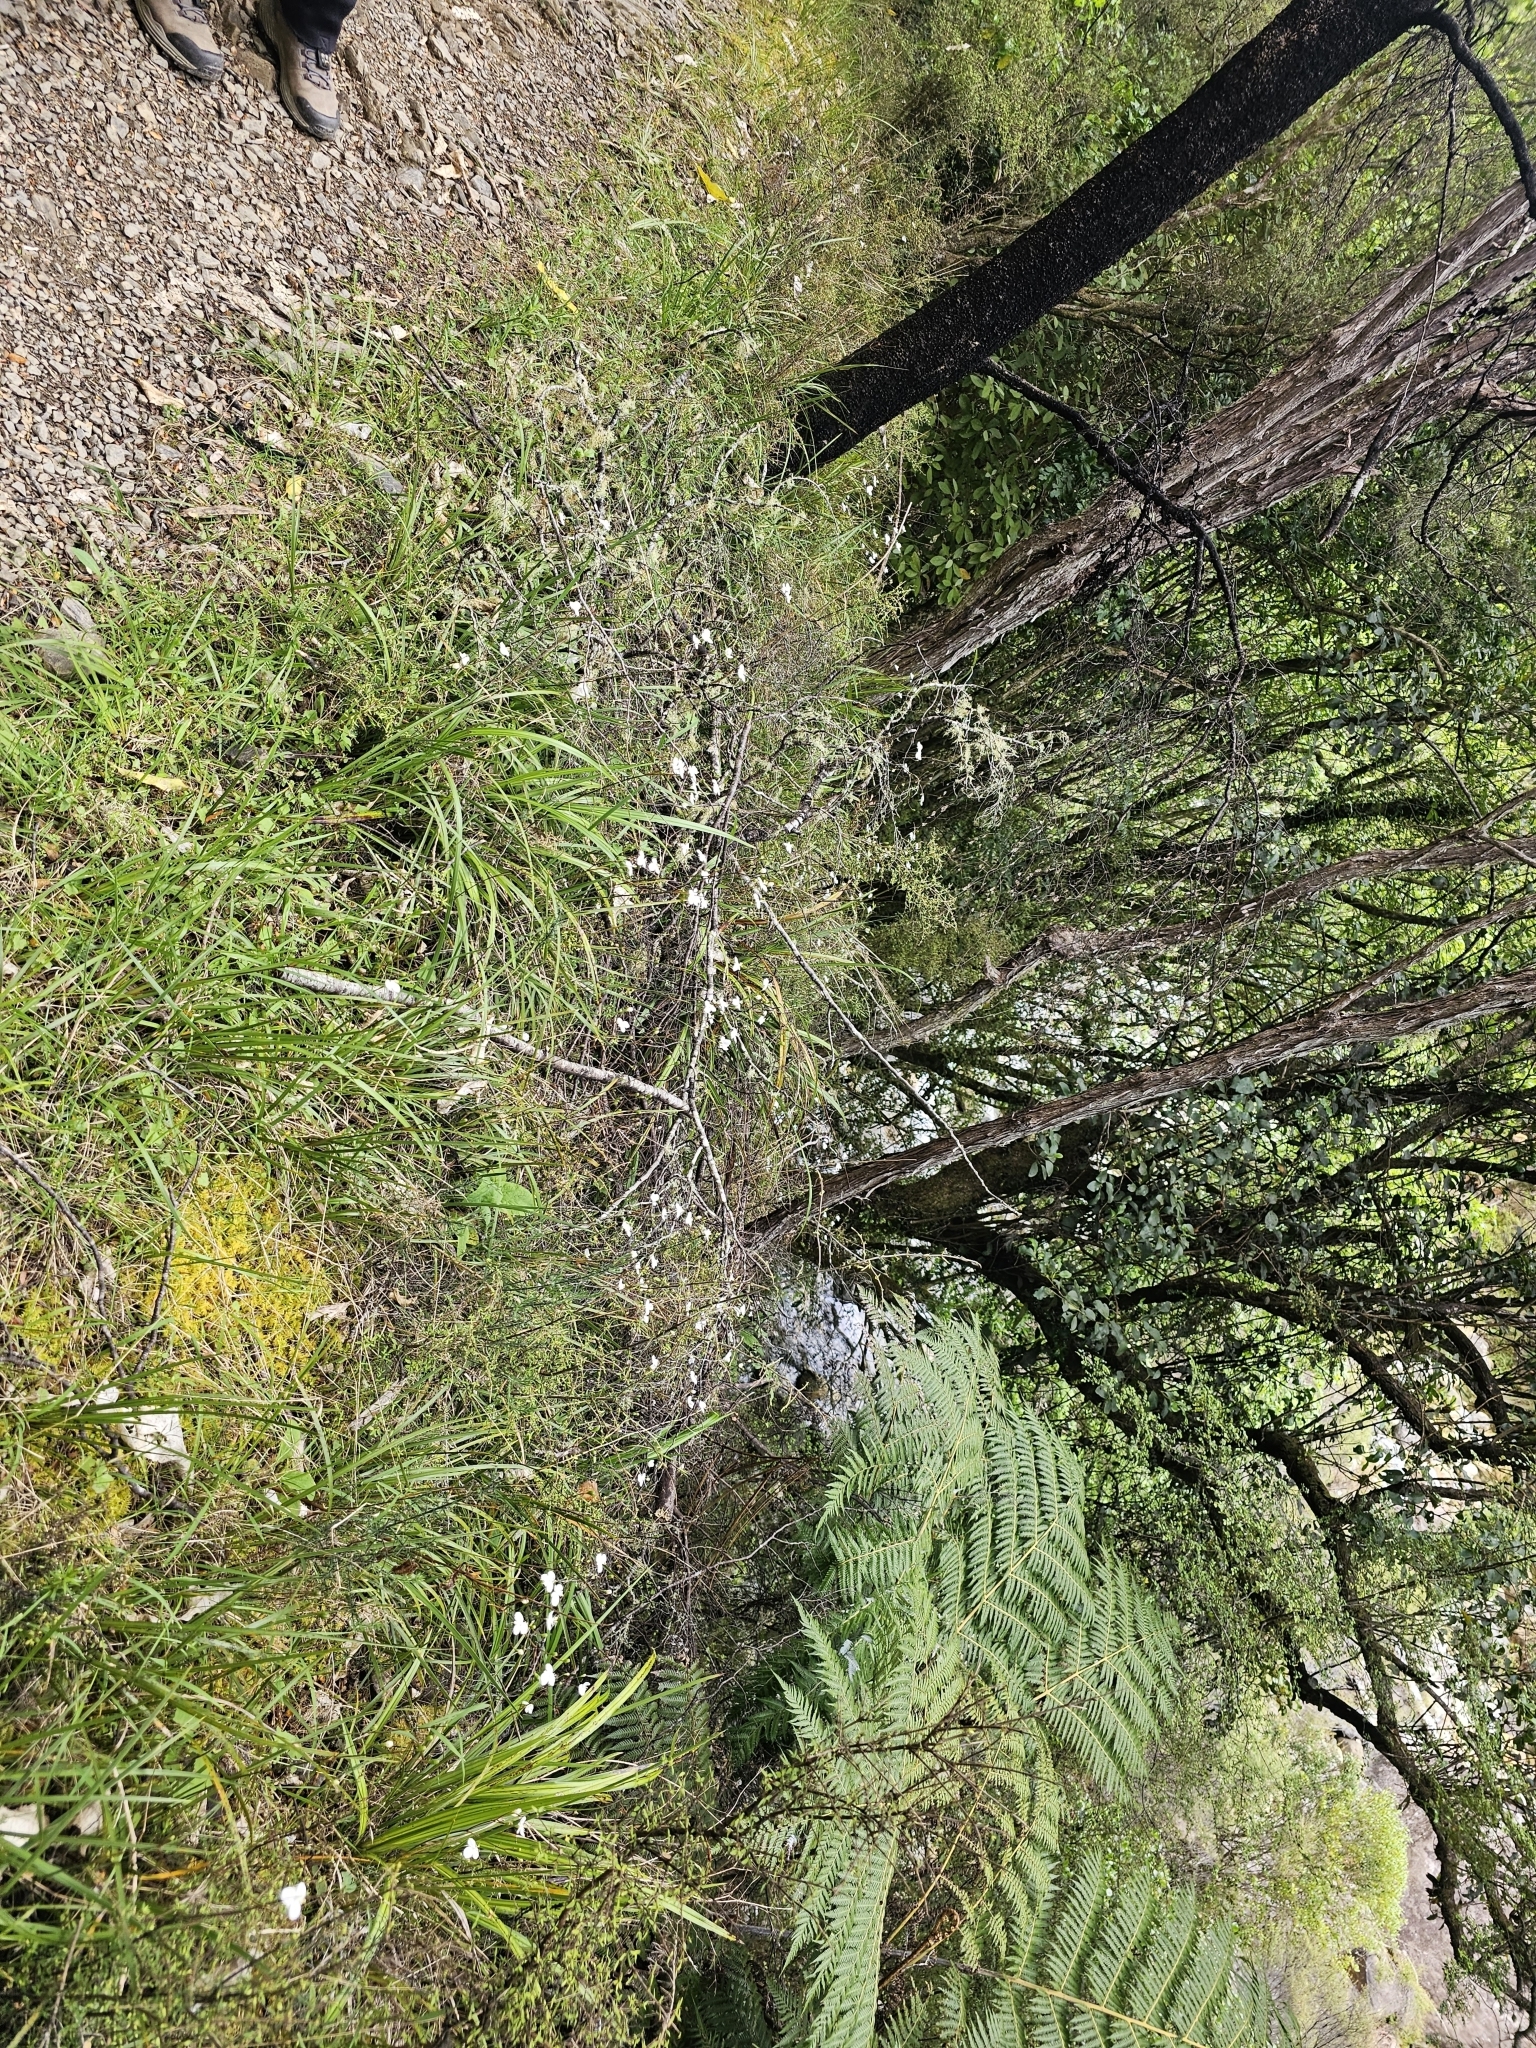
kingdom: Plantae
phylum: Tracheophyta
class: Liliopsida
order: Asparagales
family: Iridaceae
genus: Libertia
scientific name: Libertia mooreae
